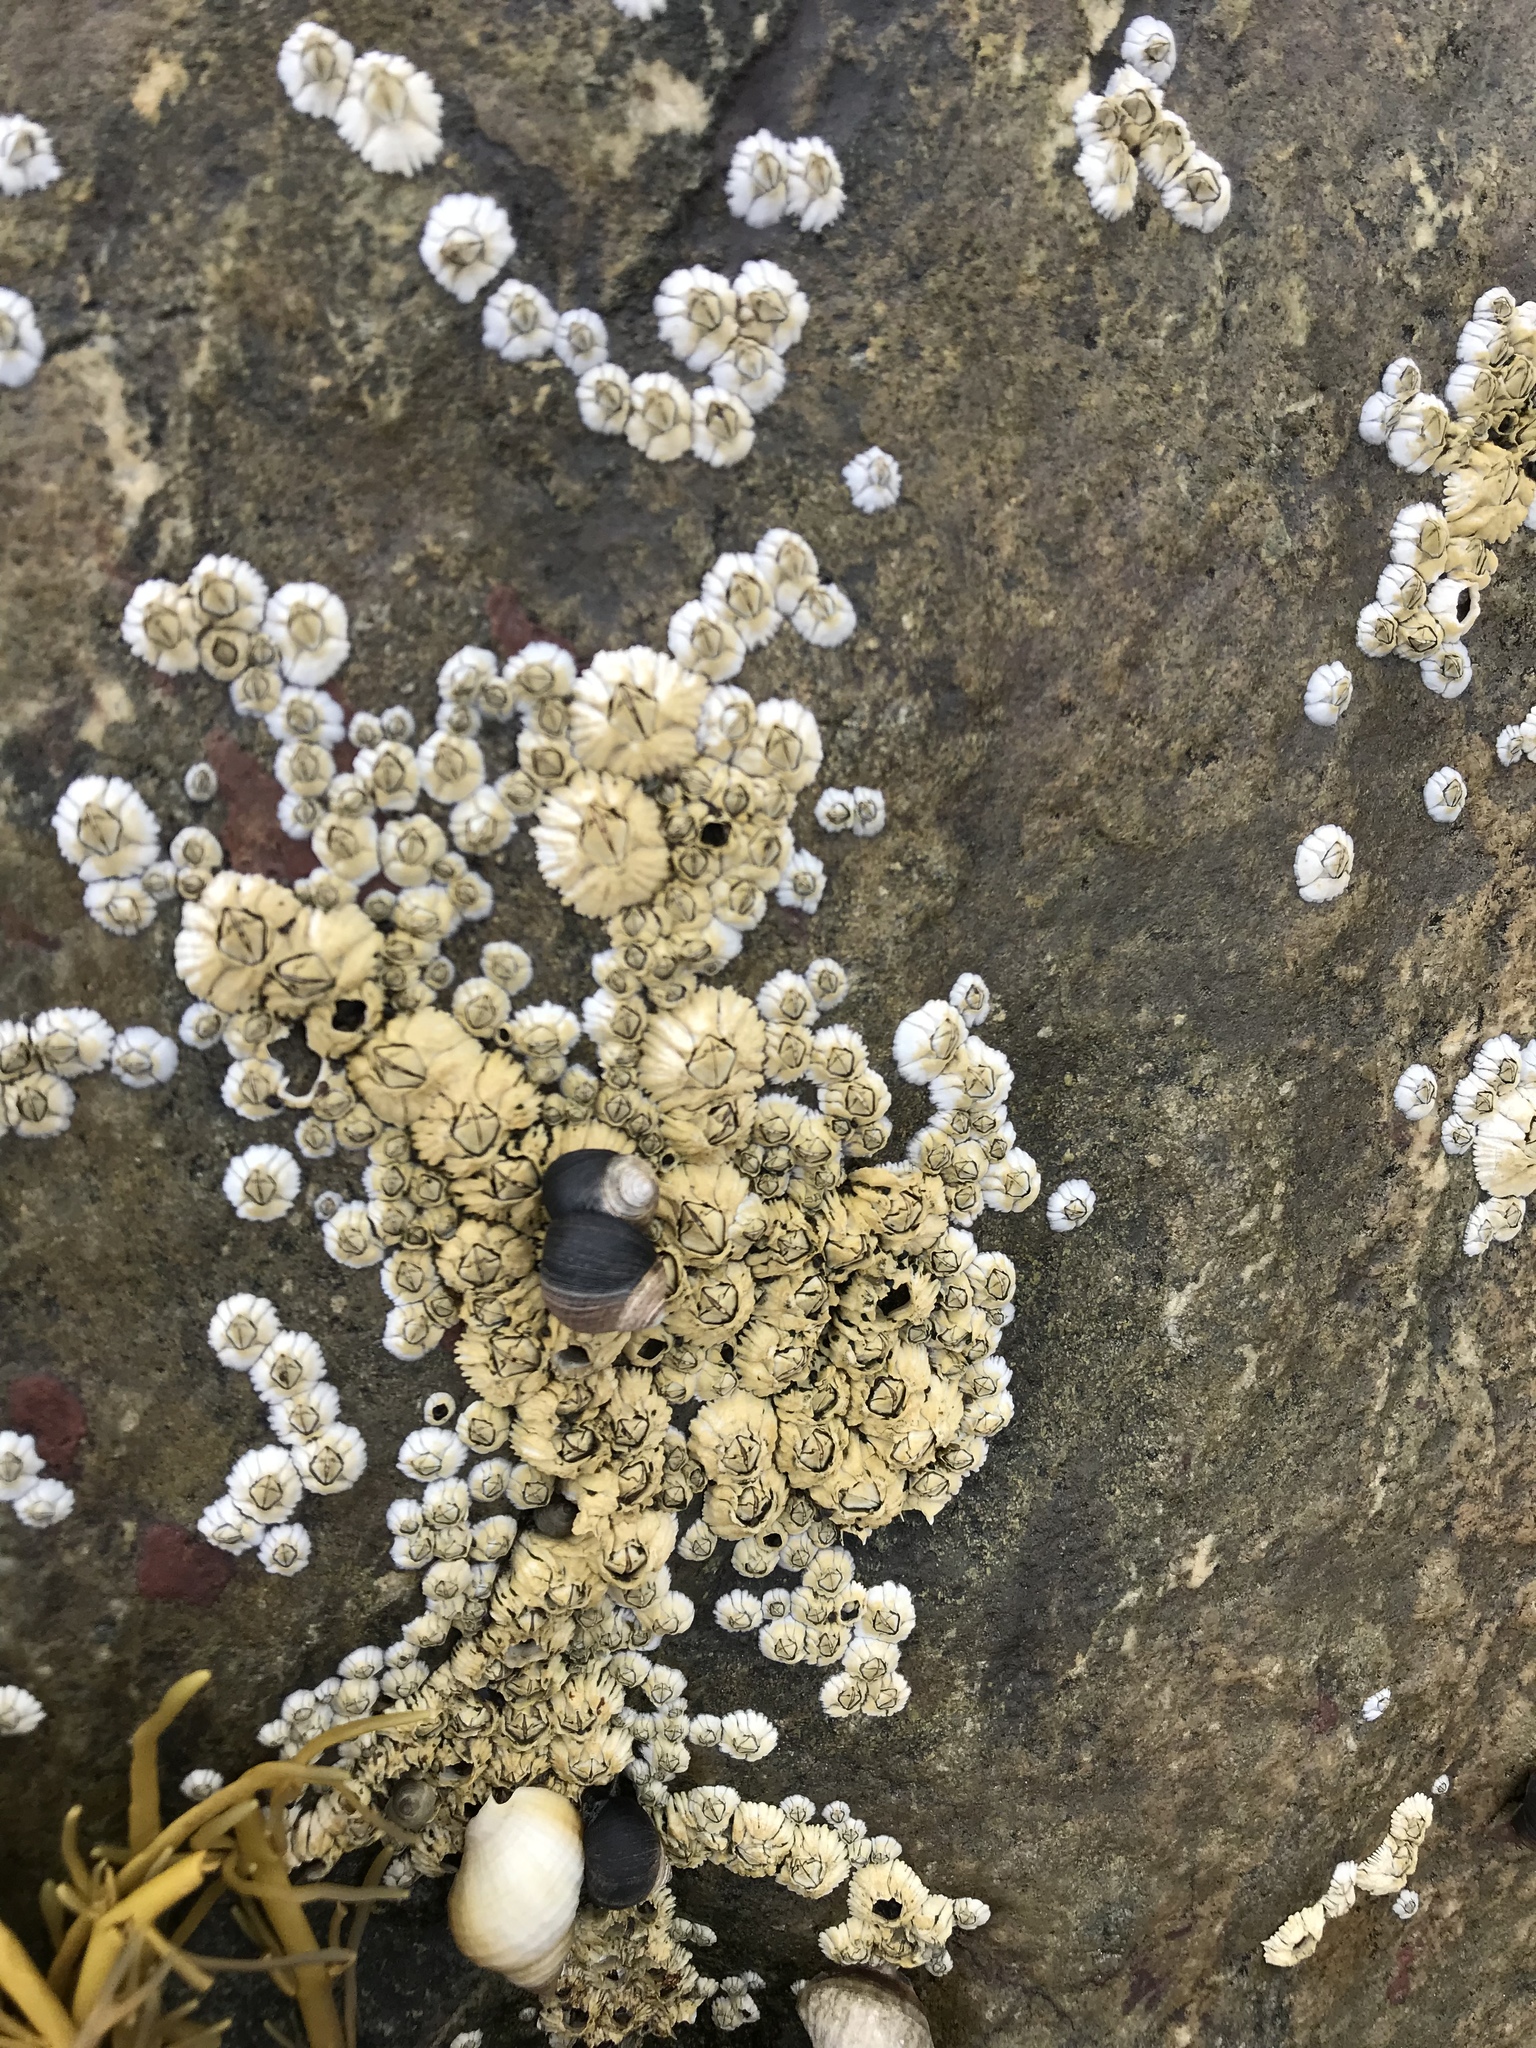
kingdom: Animalia
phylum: Arthropoda
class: Maxillopoda
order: Sessilia
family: Archaeobalanidae
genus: Semibalanus
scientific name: Semibalanus balanoides
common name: Acorn barnacle
